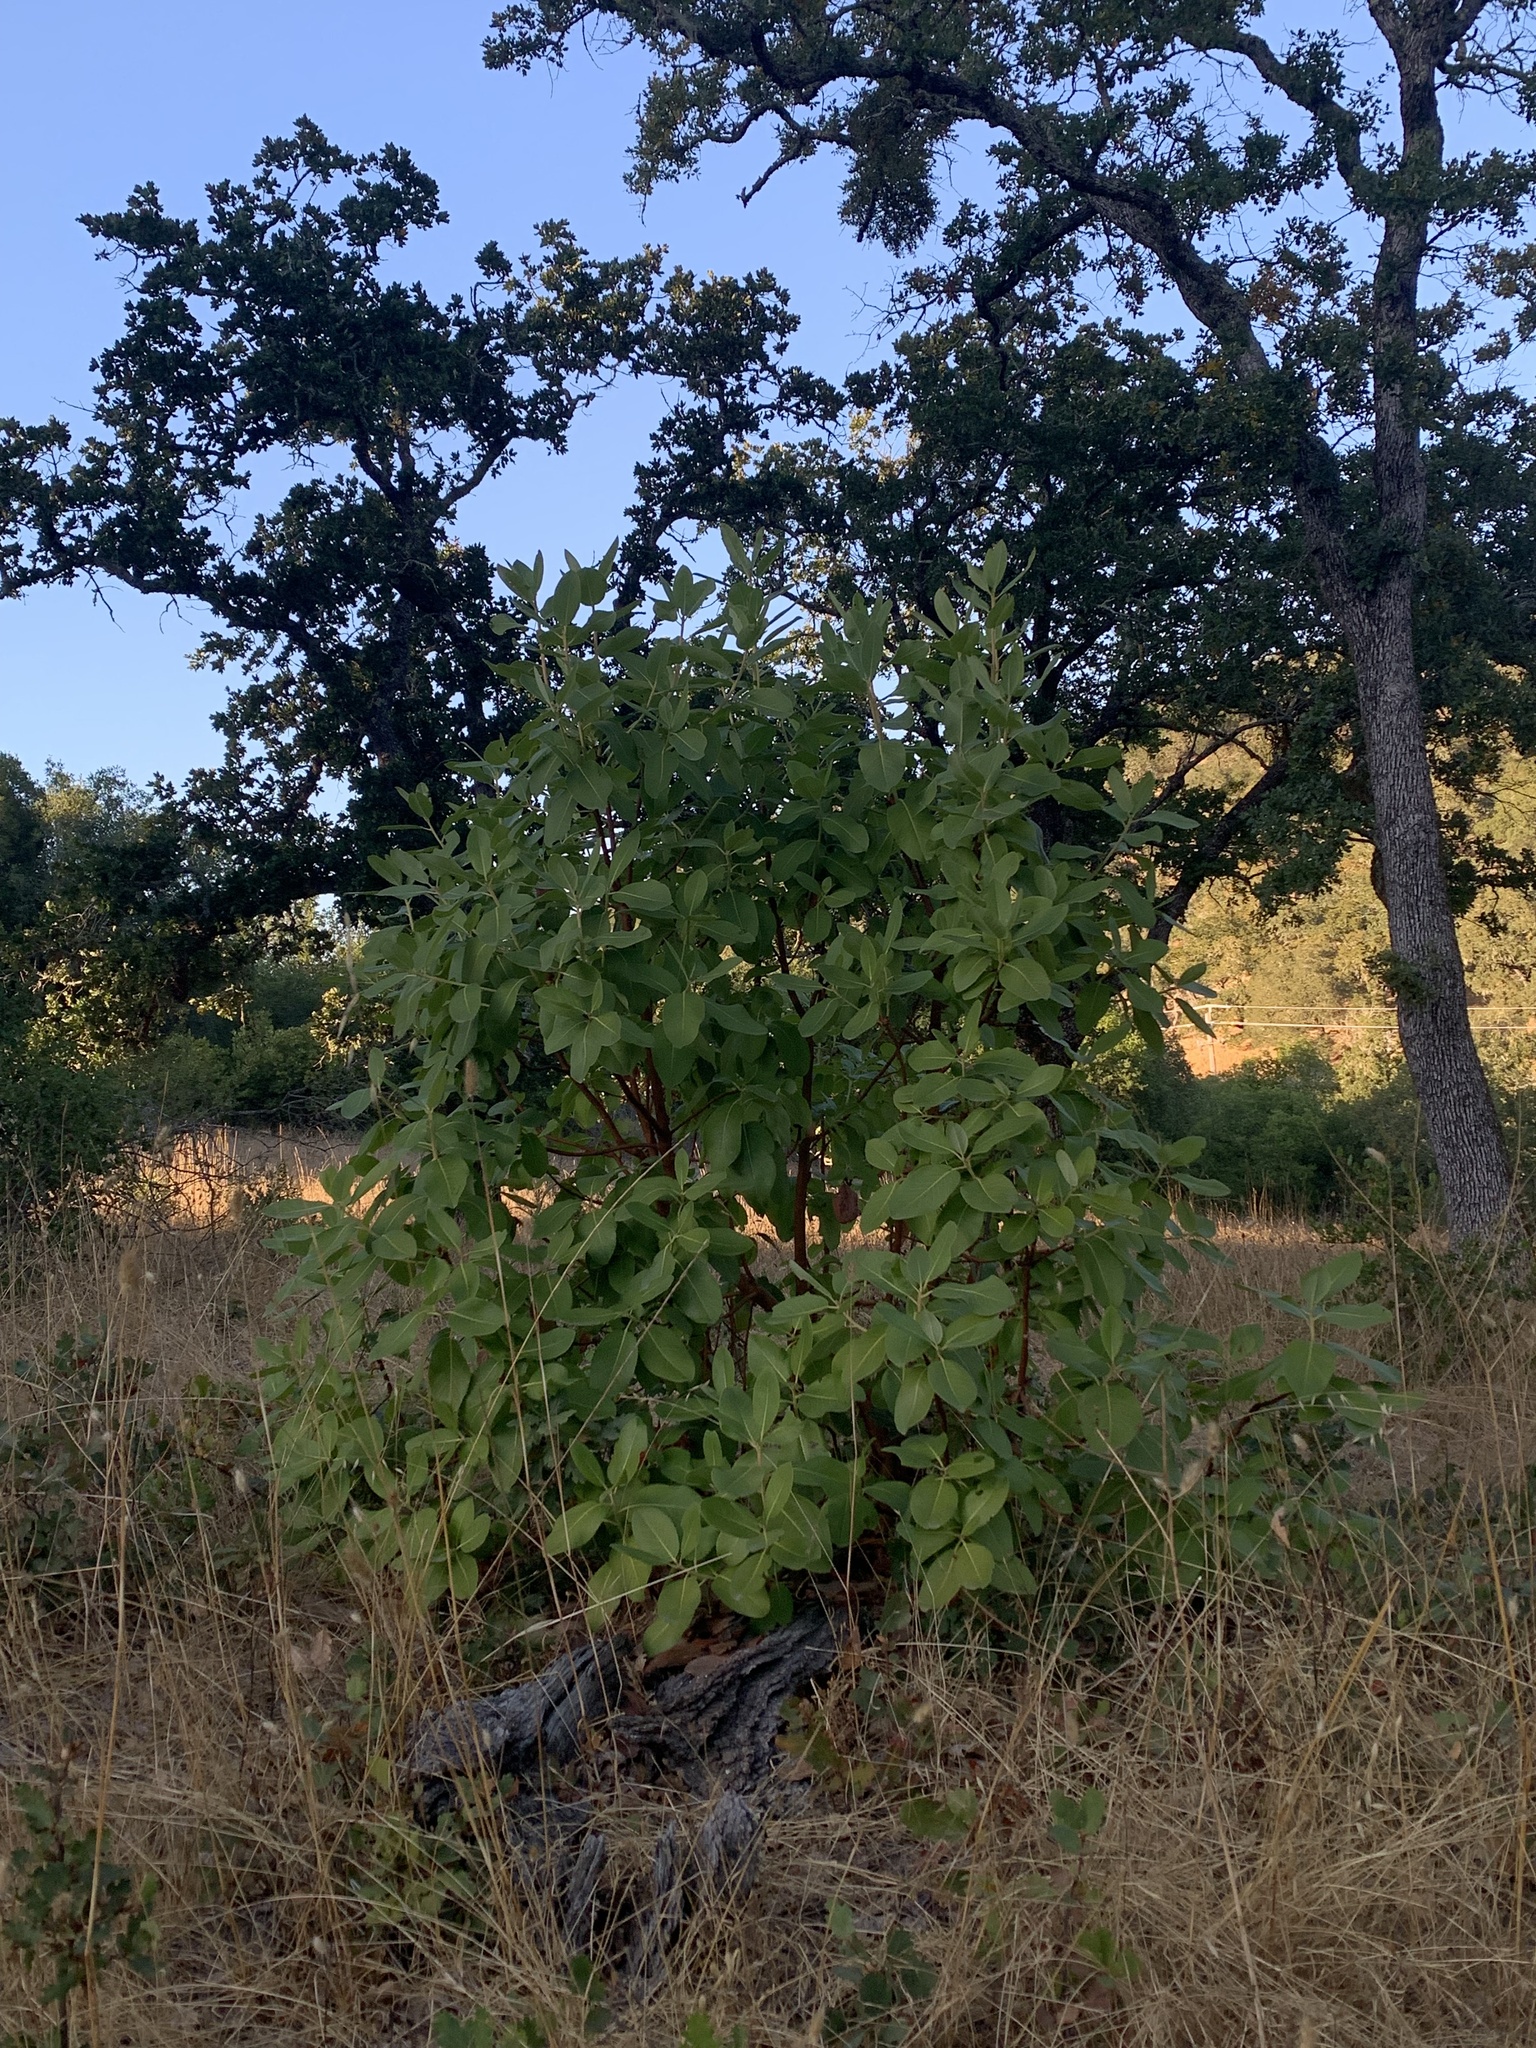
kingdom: Plantae
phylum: Tracheophyta
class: Magnoliopsida
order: Ericales
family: Ericaceae
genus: Arbutus
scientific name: Arbutus menziesii
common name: Pacific madrone
